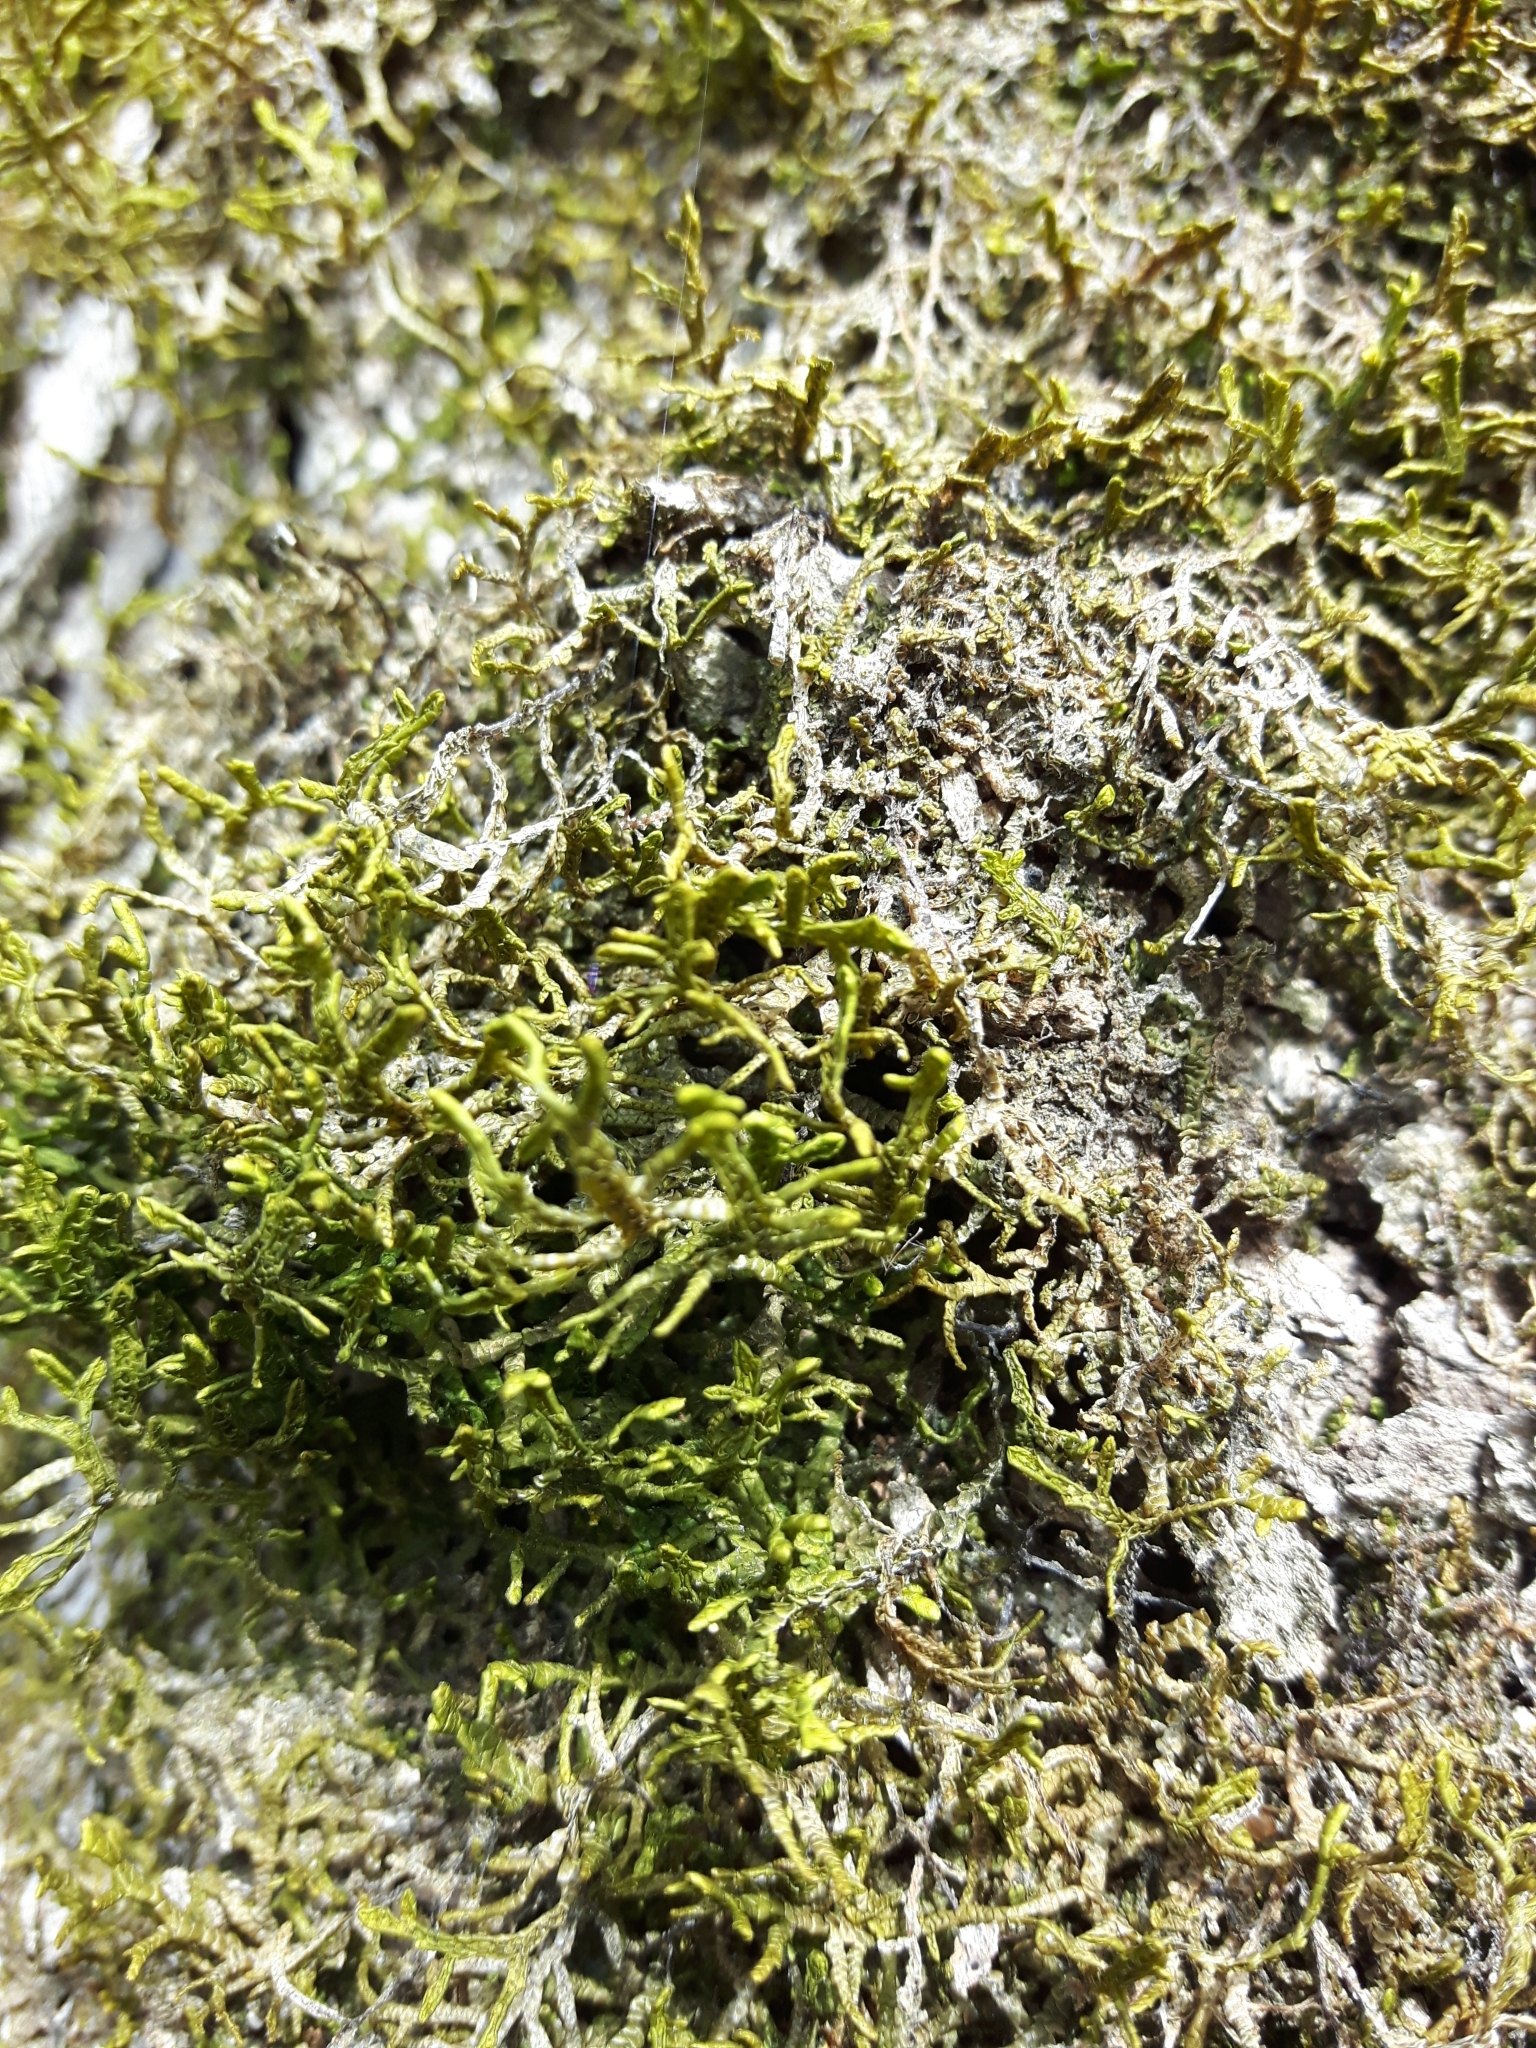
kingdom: Plantae
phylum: Marchantiophyta
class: Jungermanniopsida
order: Porellales
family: Porellaceae
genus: Porella
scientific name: Porella platyphylla
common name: Wall scalewort
